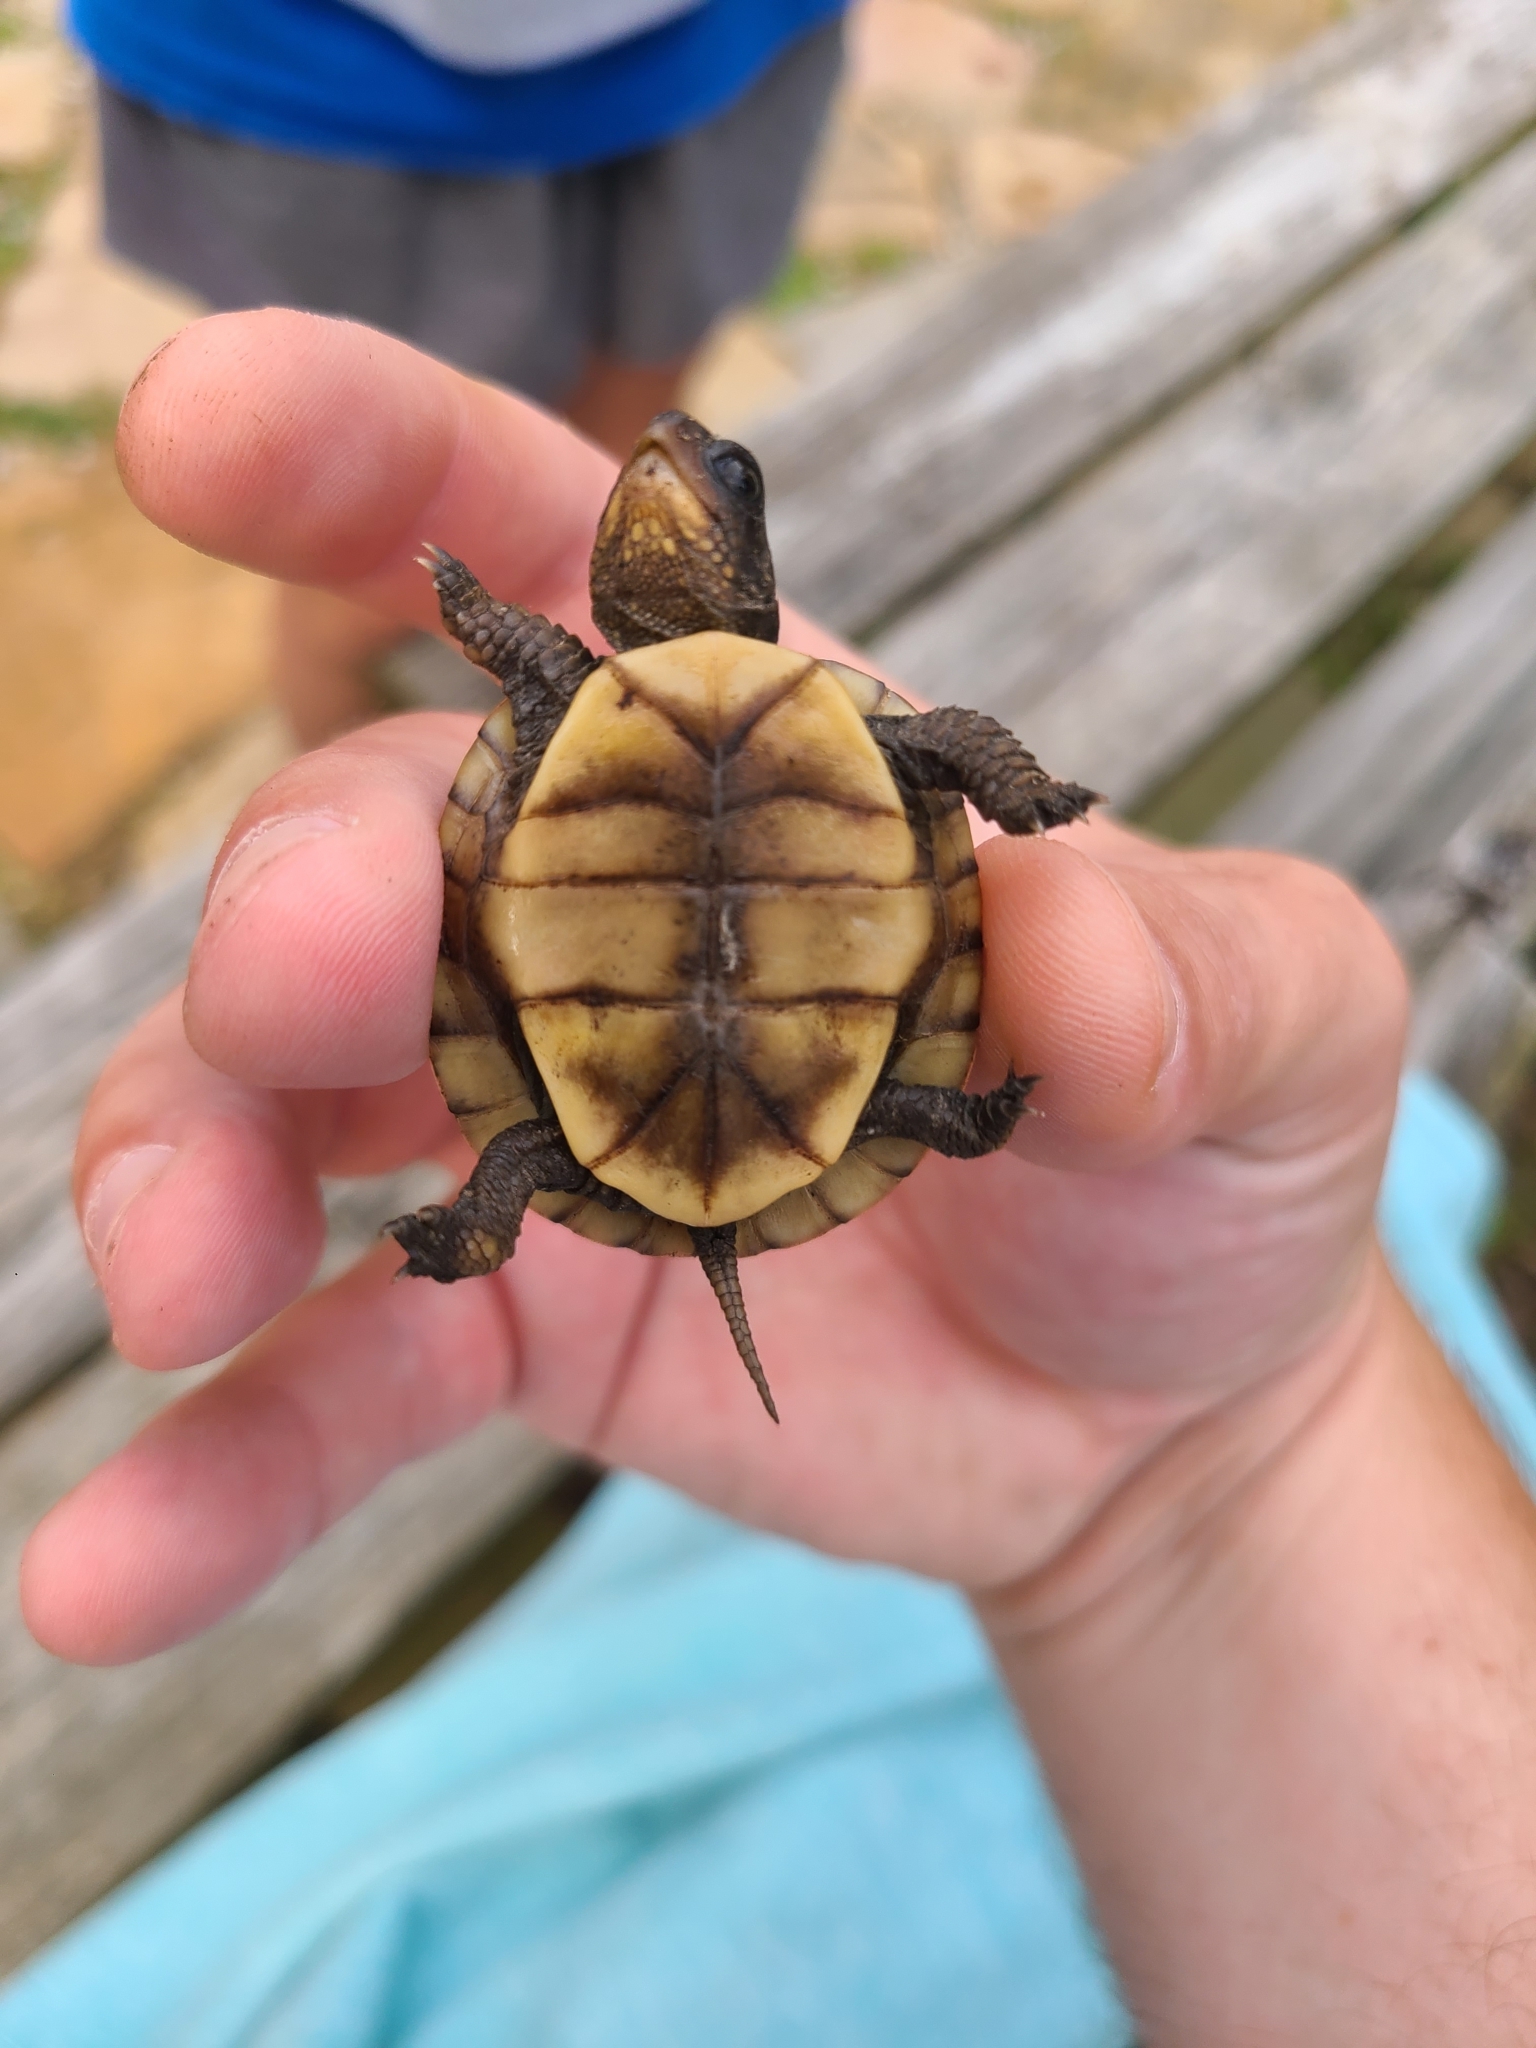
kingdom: Animalia
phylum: Chordata
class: Testudines
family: Emydidae
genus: Terrapene
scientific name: Terrapene carolina
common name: Common box turtle
